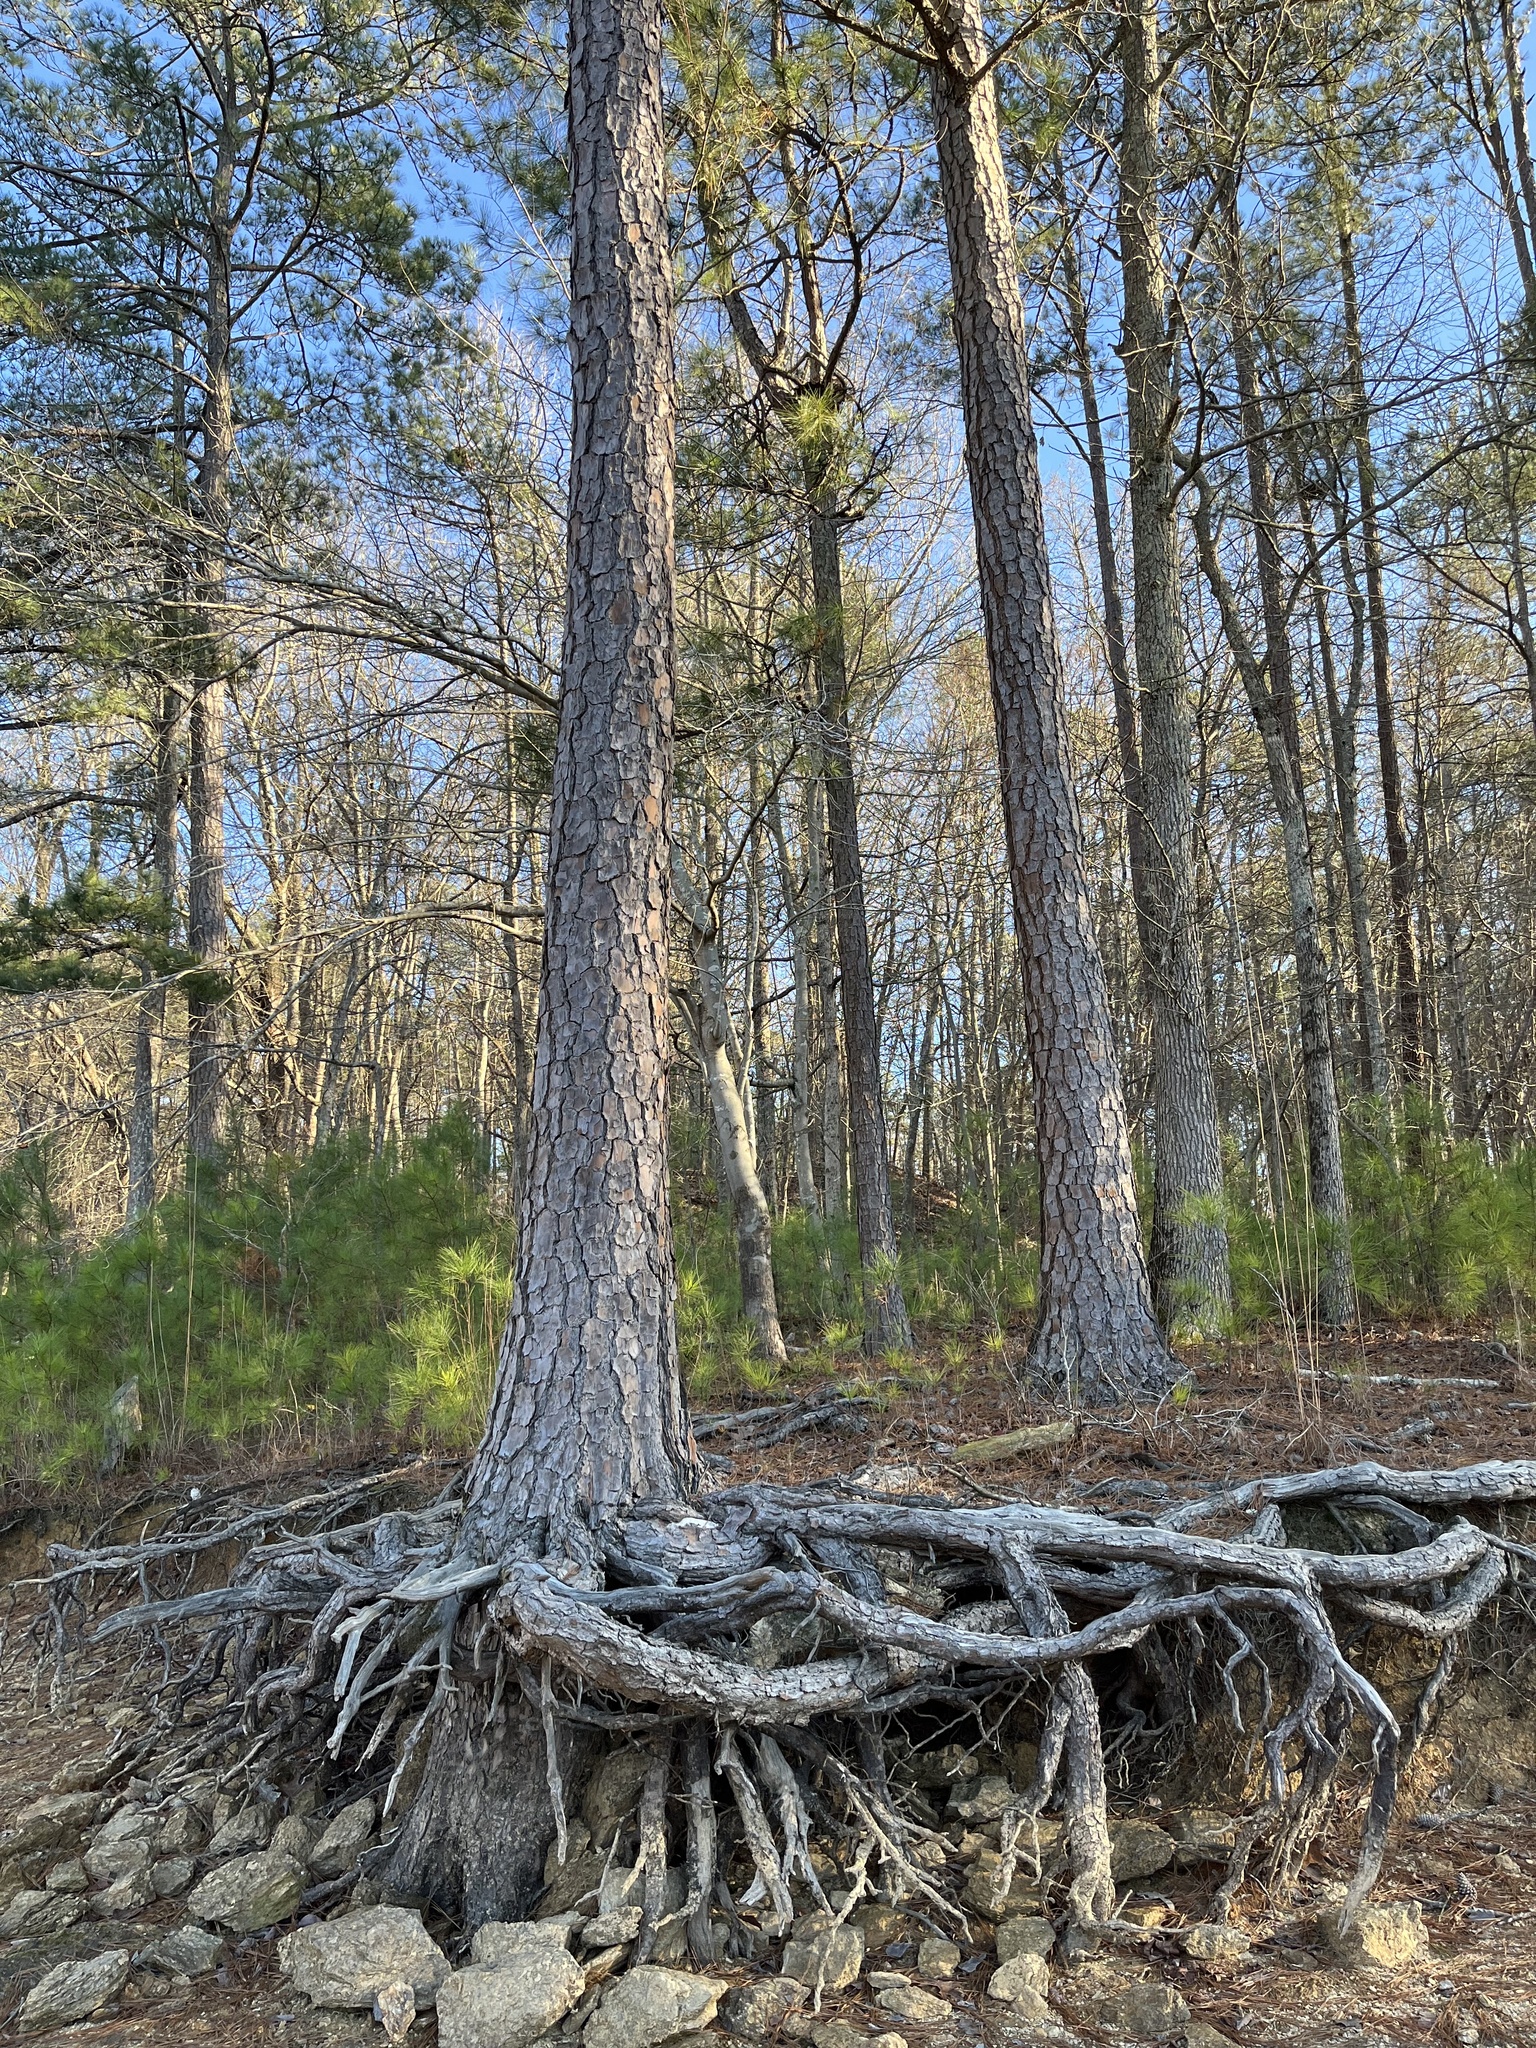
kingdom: Plantae
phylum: Tracheophyta
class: Pinopsida
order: Pinales
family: Pinaceae
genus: Pinus
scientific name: Pinus taeda
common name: Loblolly pine
